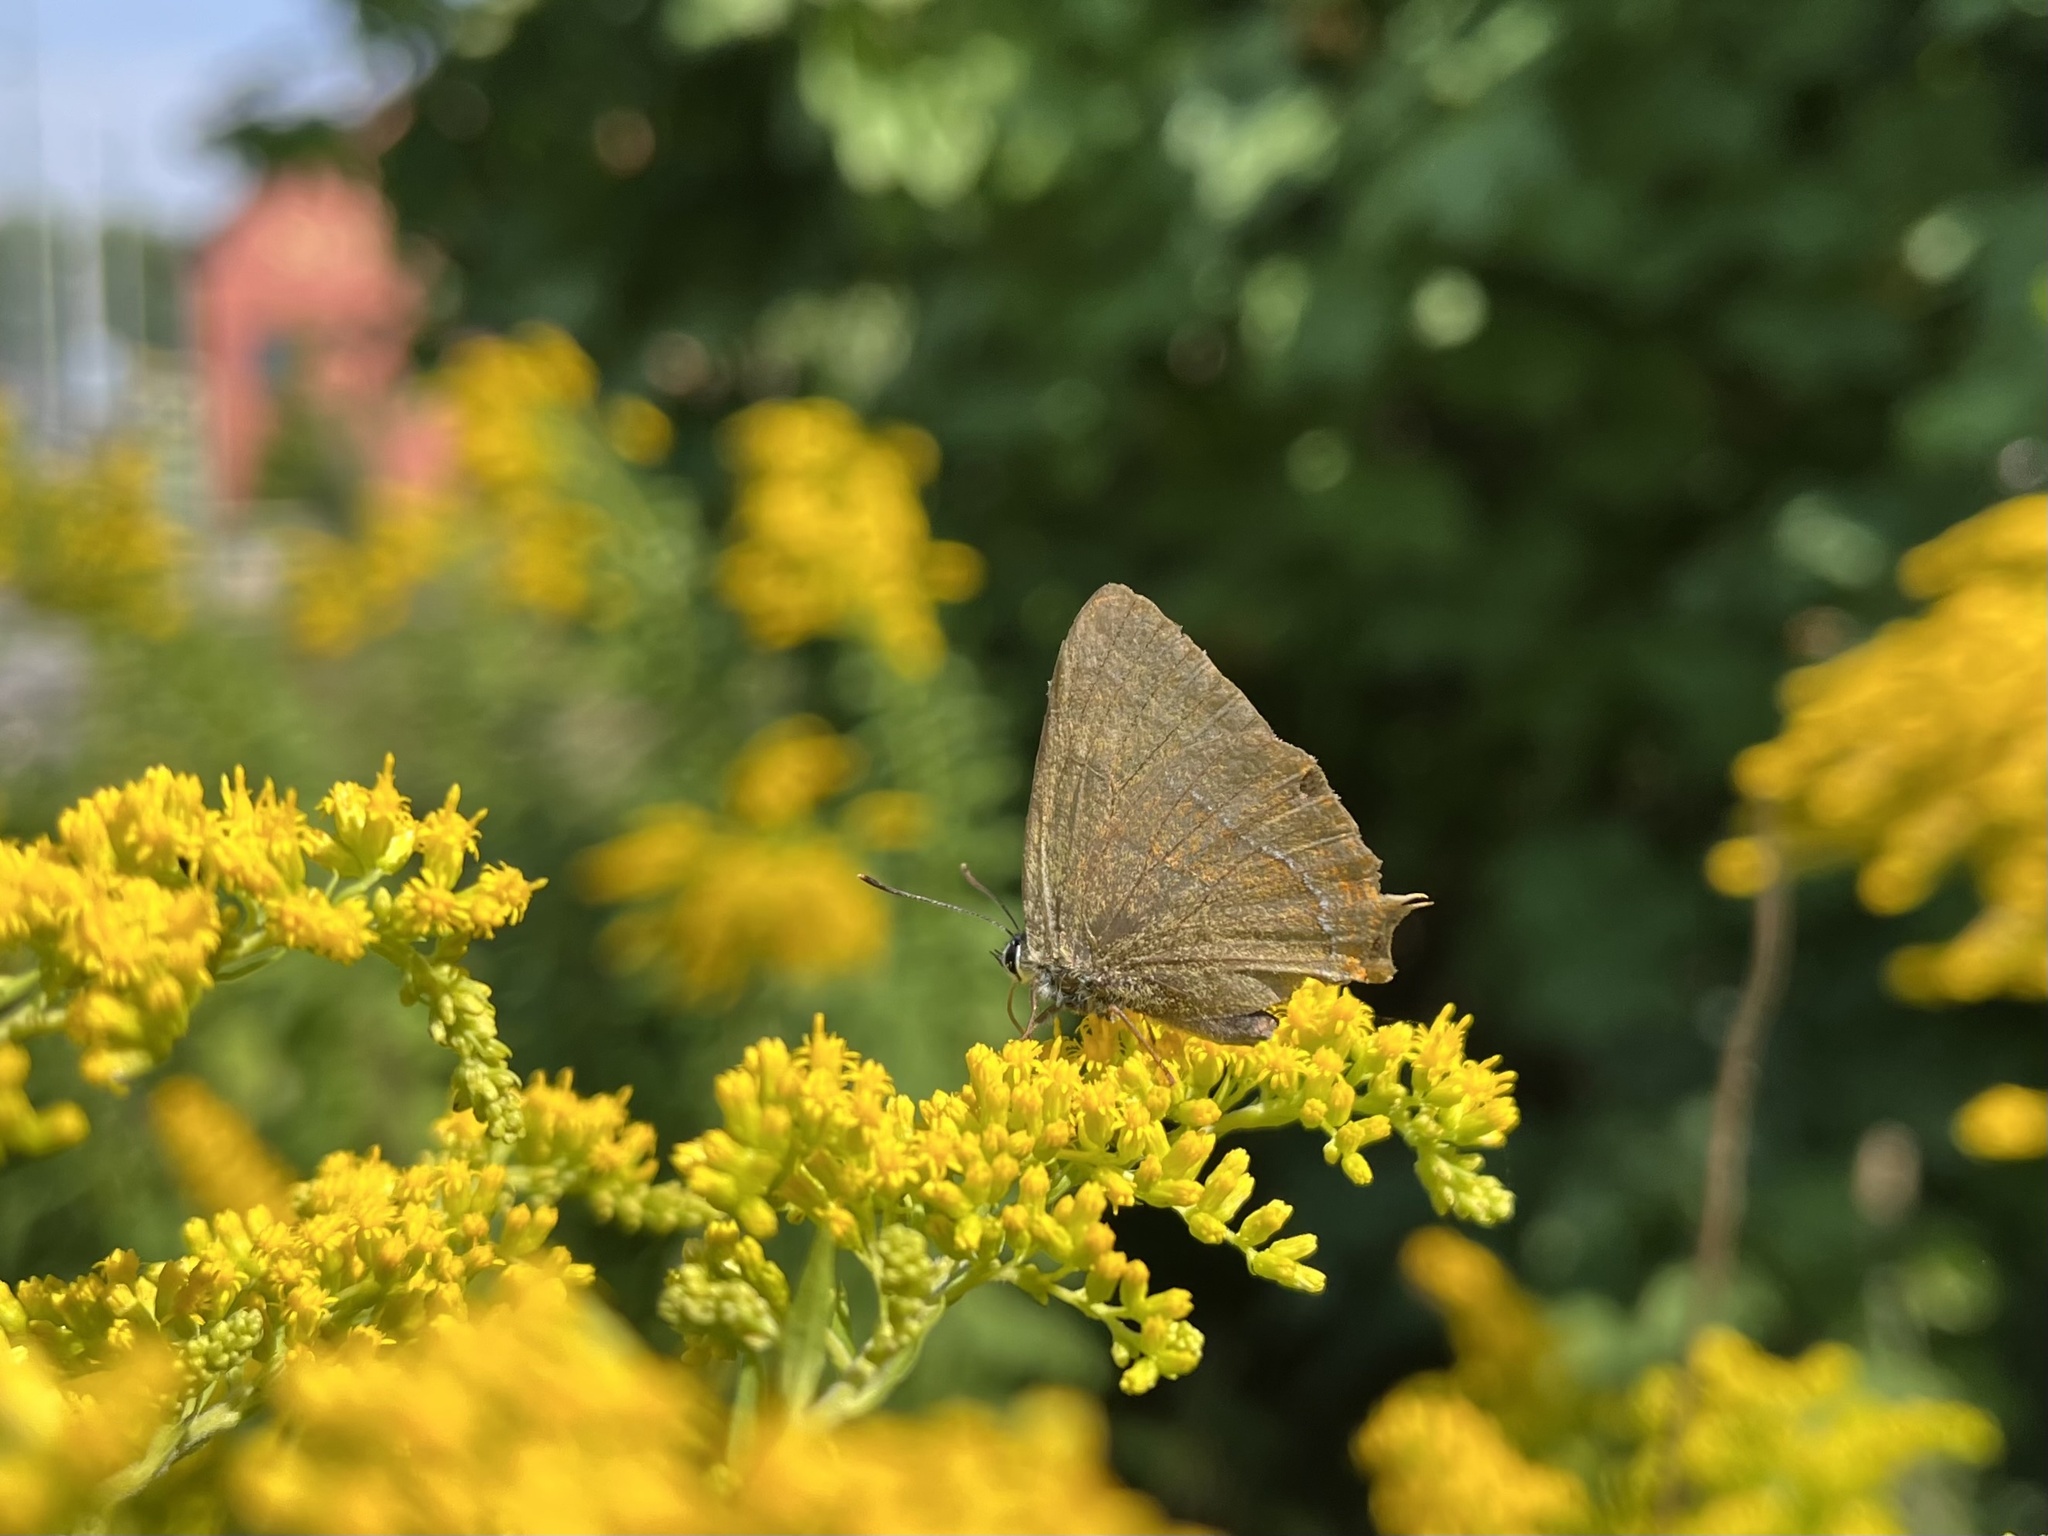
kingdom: Animalia
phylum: Arthropoda
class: Insecta
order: Lepidoptera
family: Lycaenidae
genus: Thecla
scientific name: Thecla betulae
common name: Brown hairstreak
